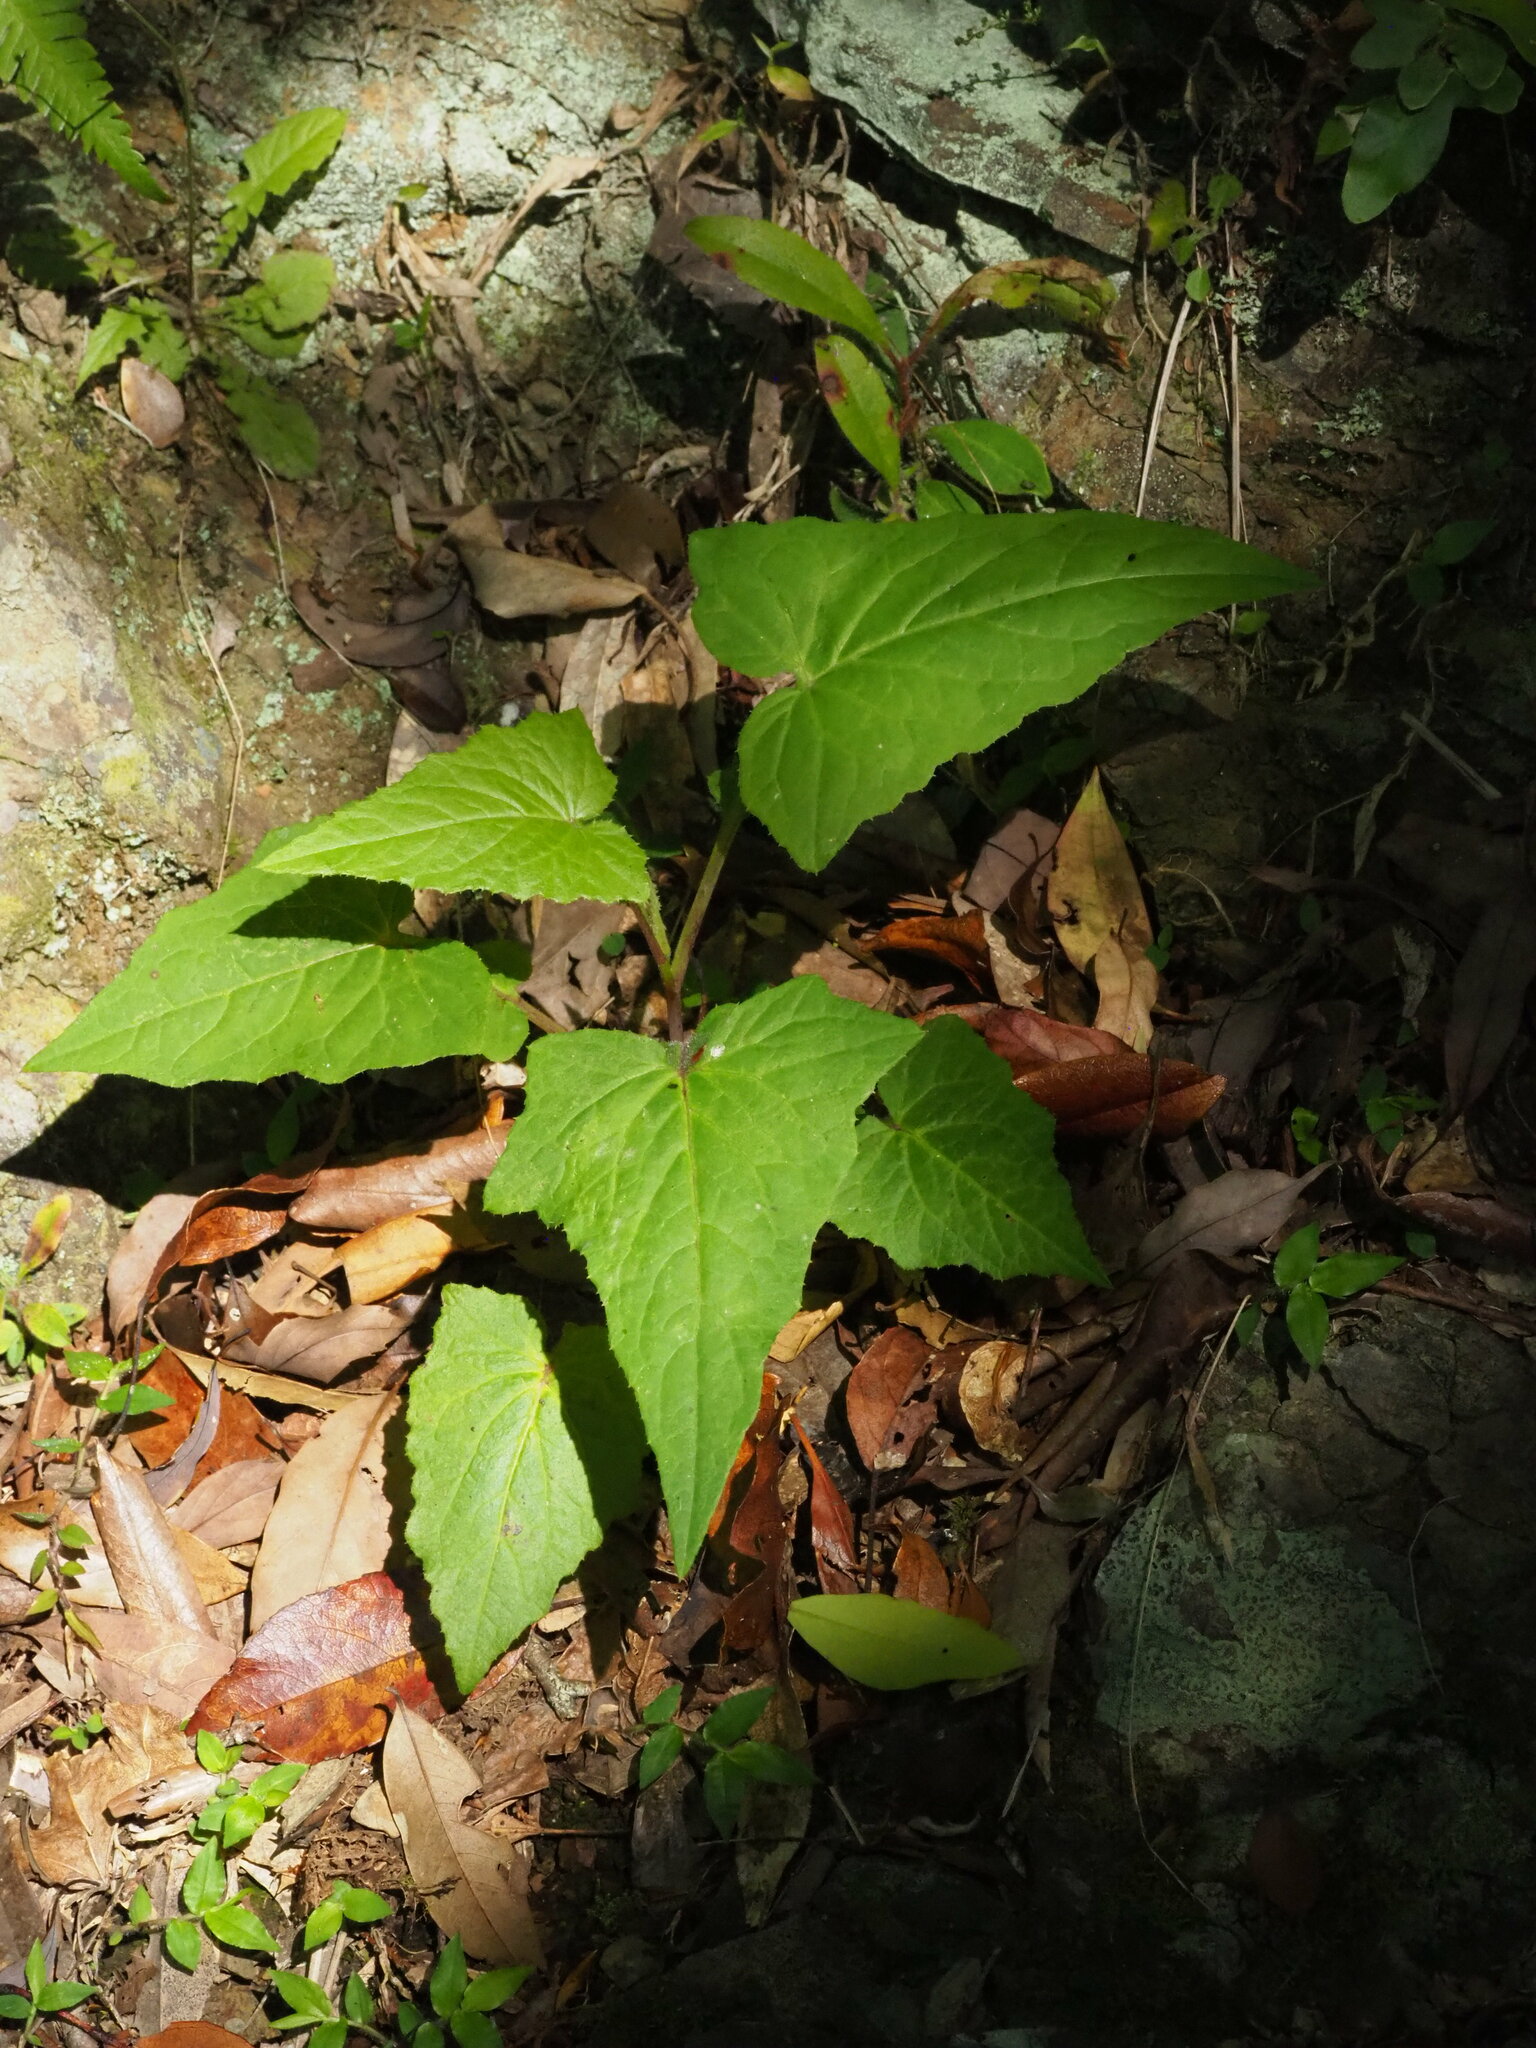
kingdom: Plantae
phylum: Tracheophyta
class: Magnoliopsida
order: Asterales
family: Asteraceae
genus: Paraprenanthes
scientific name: Paraprenanthes sororia
